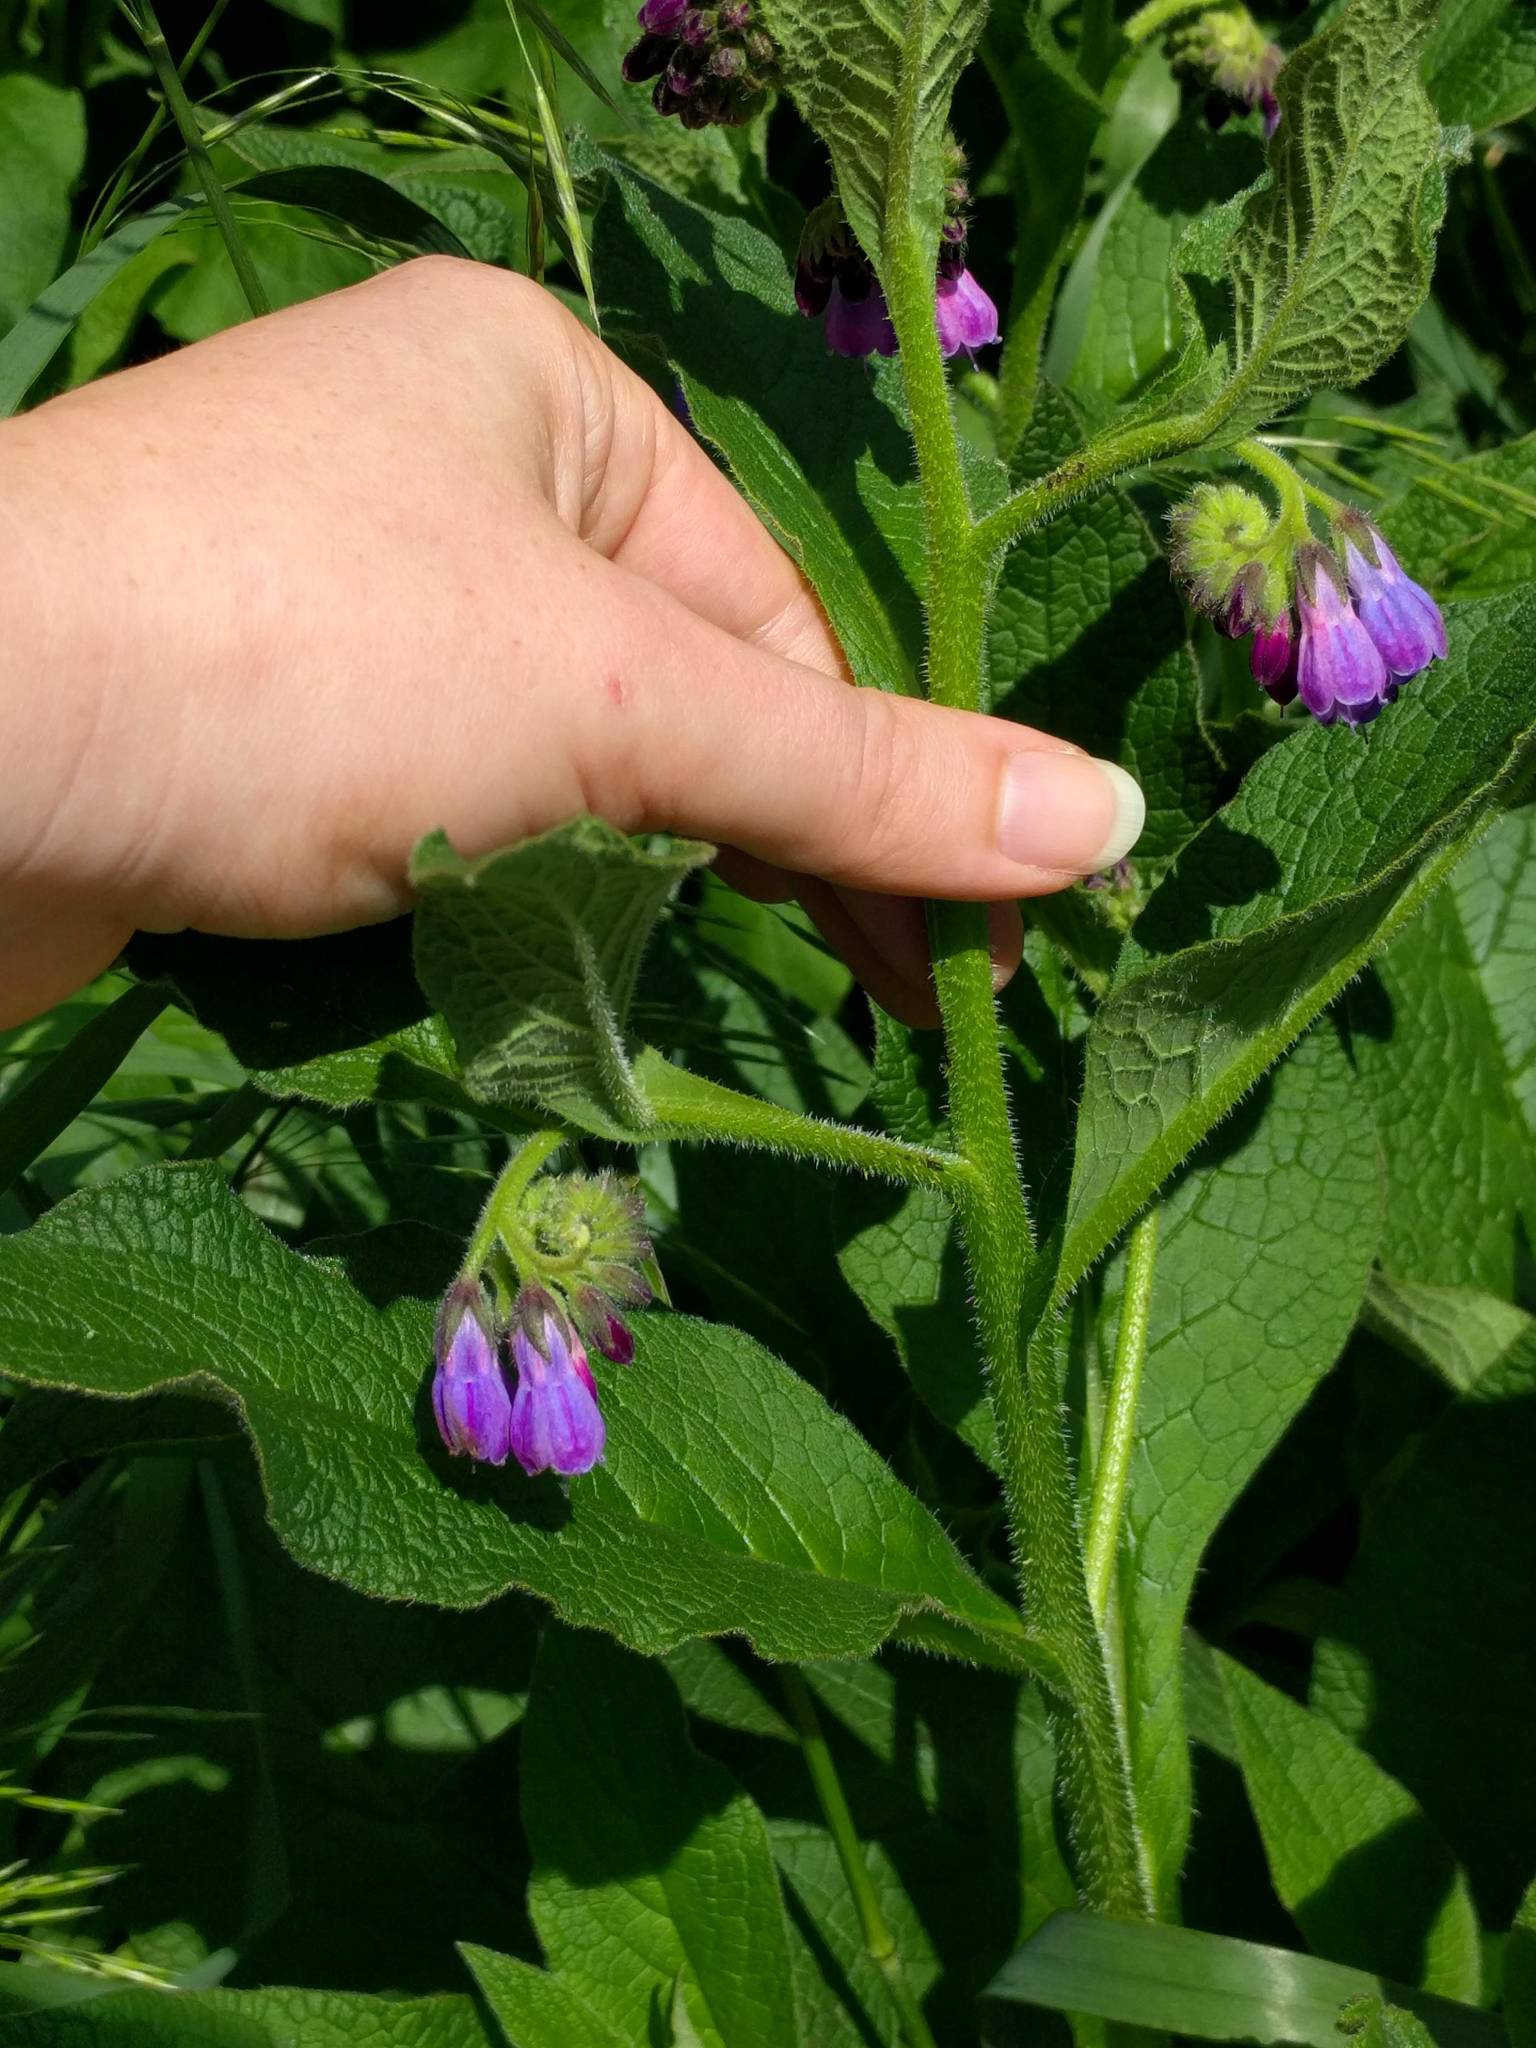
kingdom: Plantae
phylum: Tracheophyta
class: Magnoliopsida
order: Boraginales
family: Boraginaceae
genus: Symphytum
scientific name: Symphytum officinale
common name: Common comfrey
